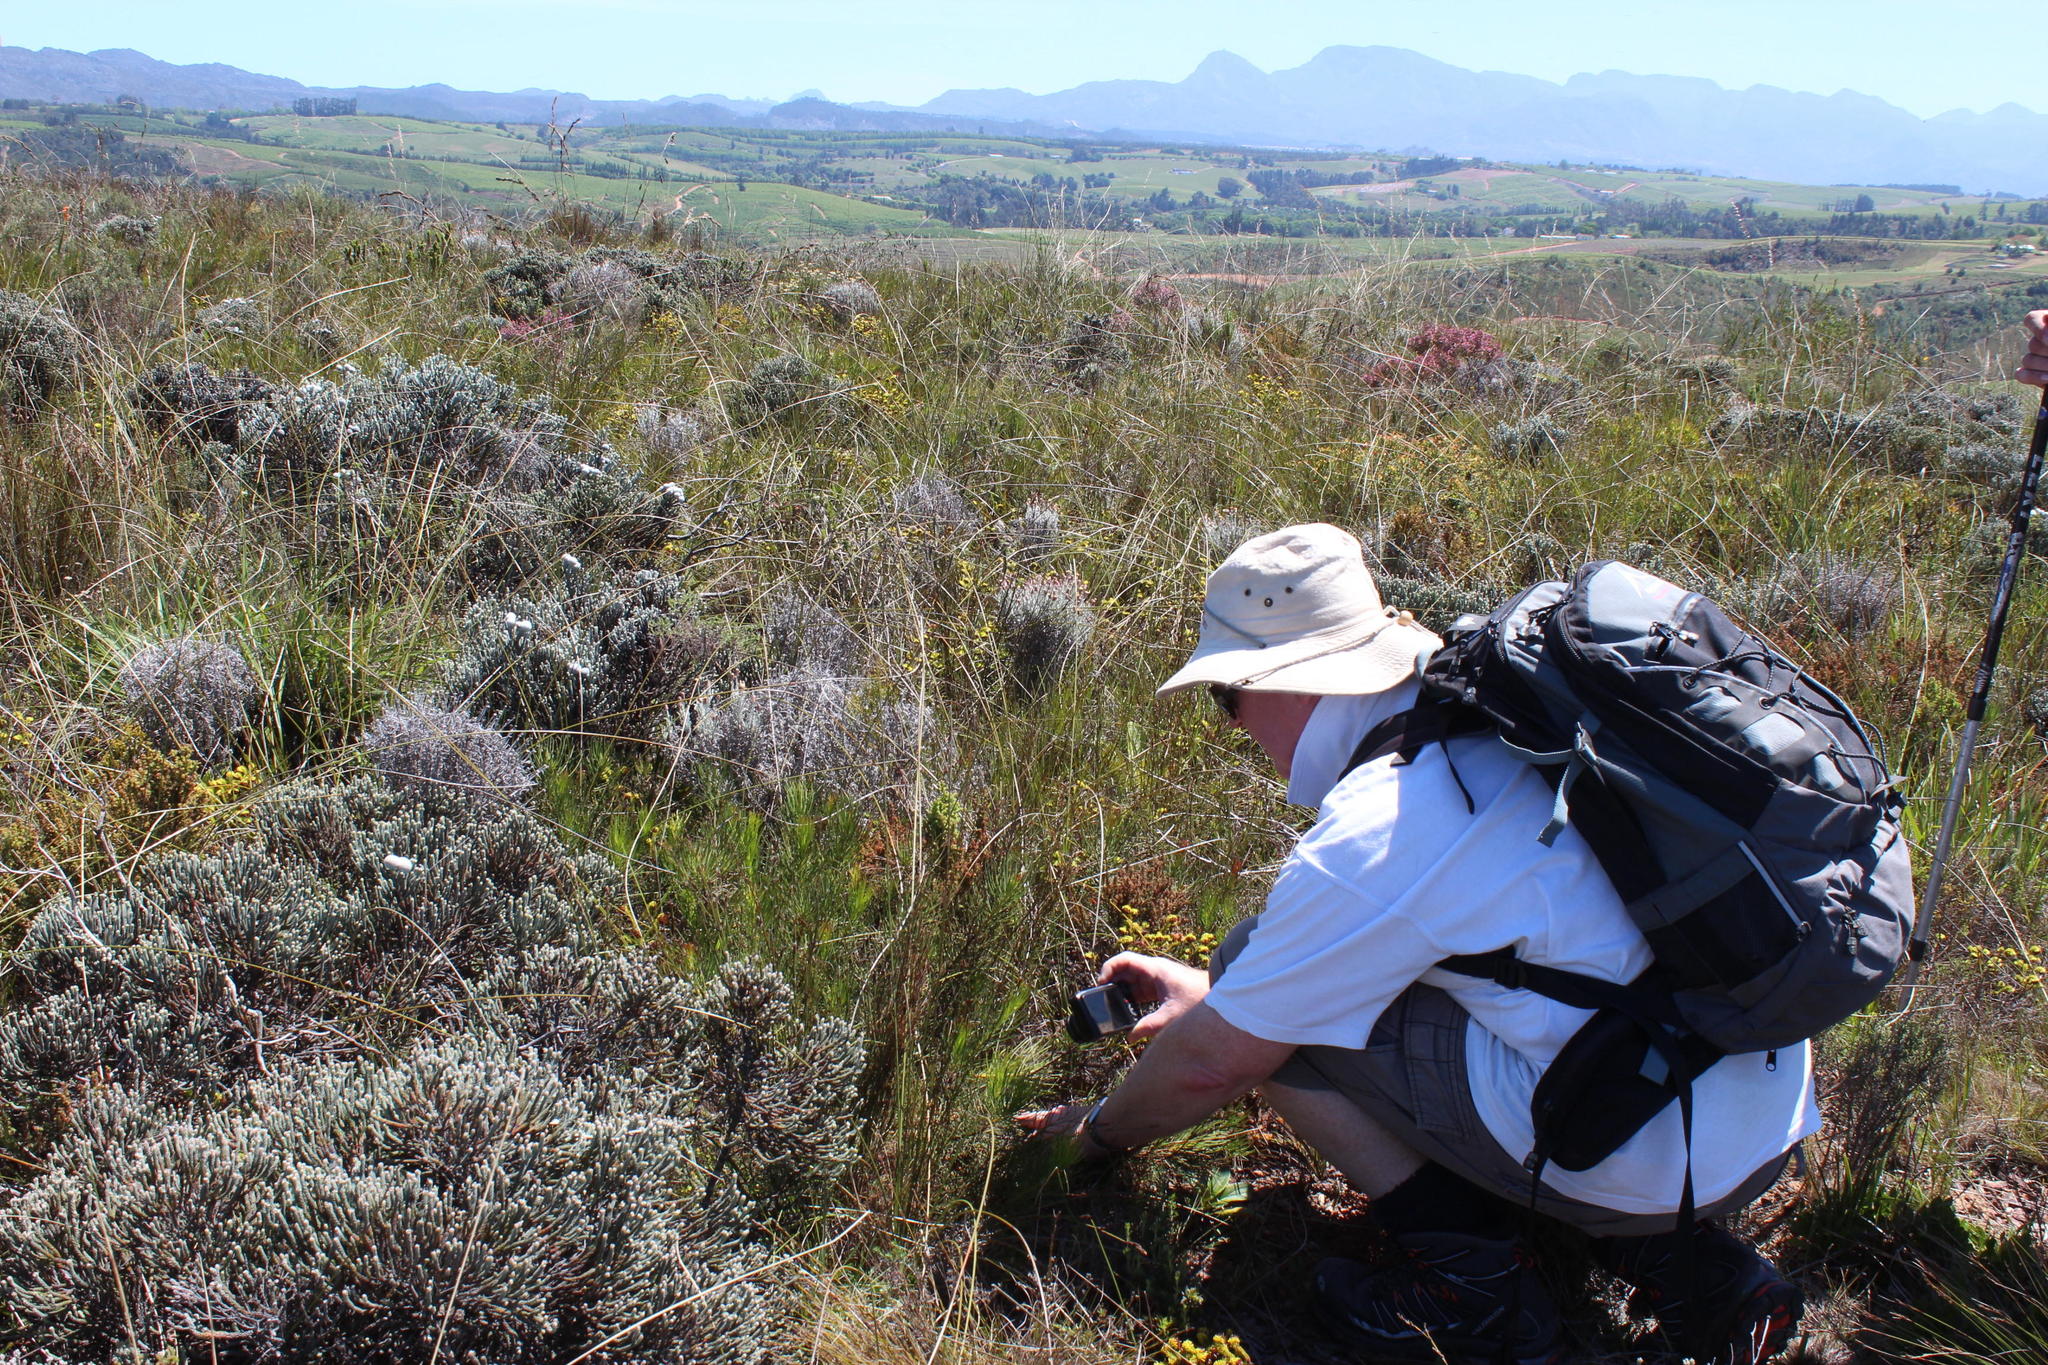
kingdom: Plantae
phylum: Tracheophyta
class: Magnoliopsida
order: Proteales
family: Proteaceae
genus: Protea
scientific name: Protea subulifolia
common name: Awl-leaf sugarbush
